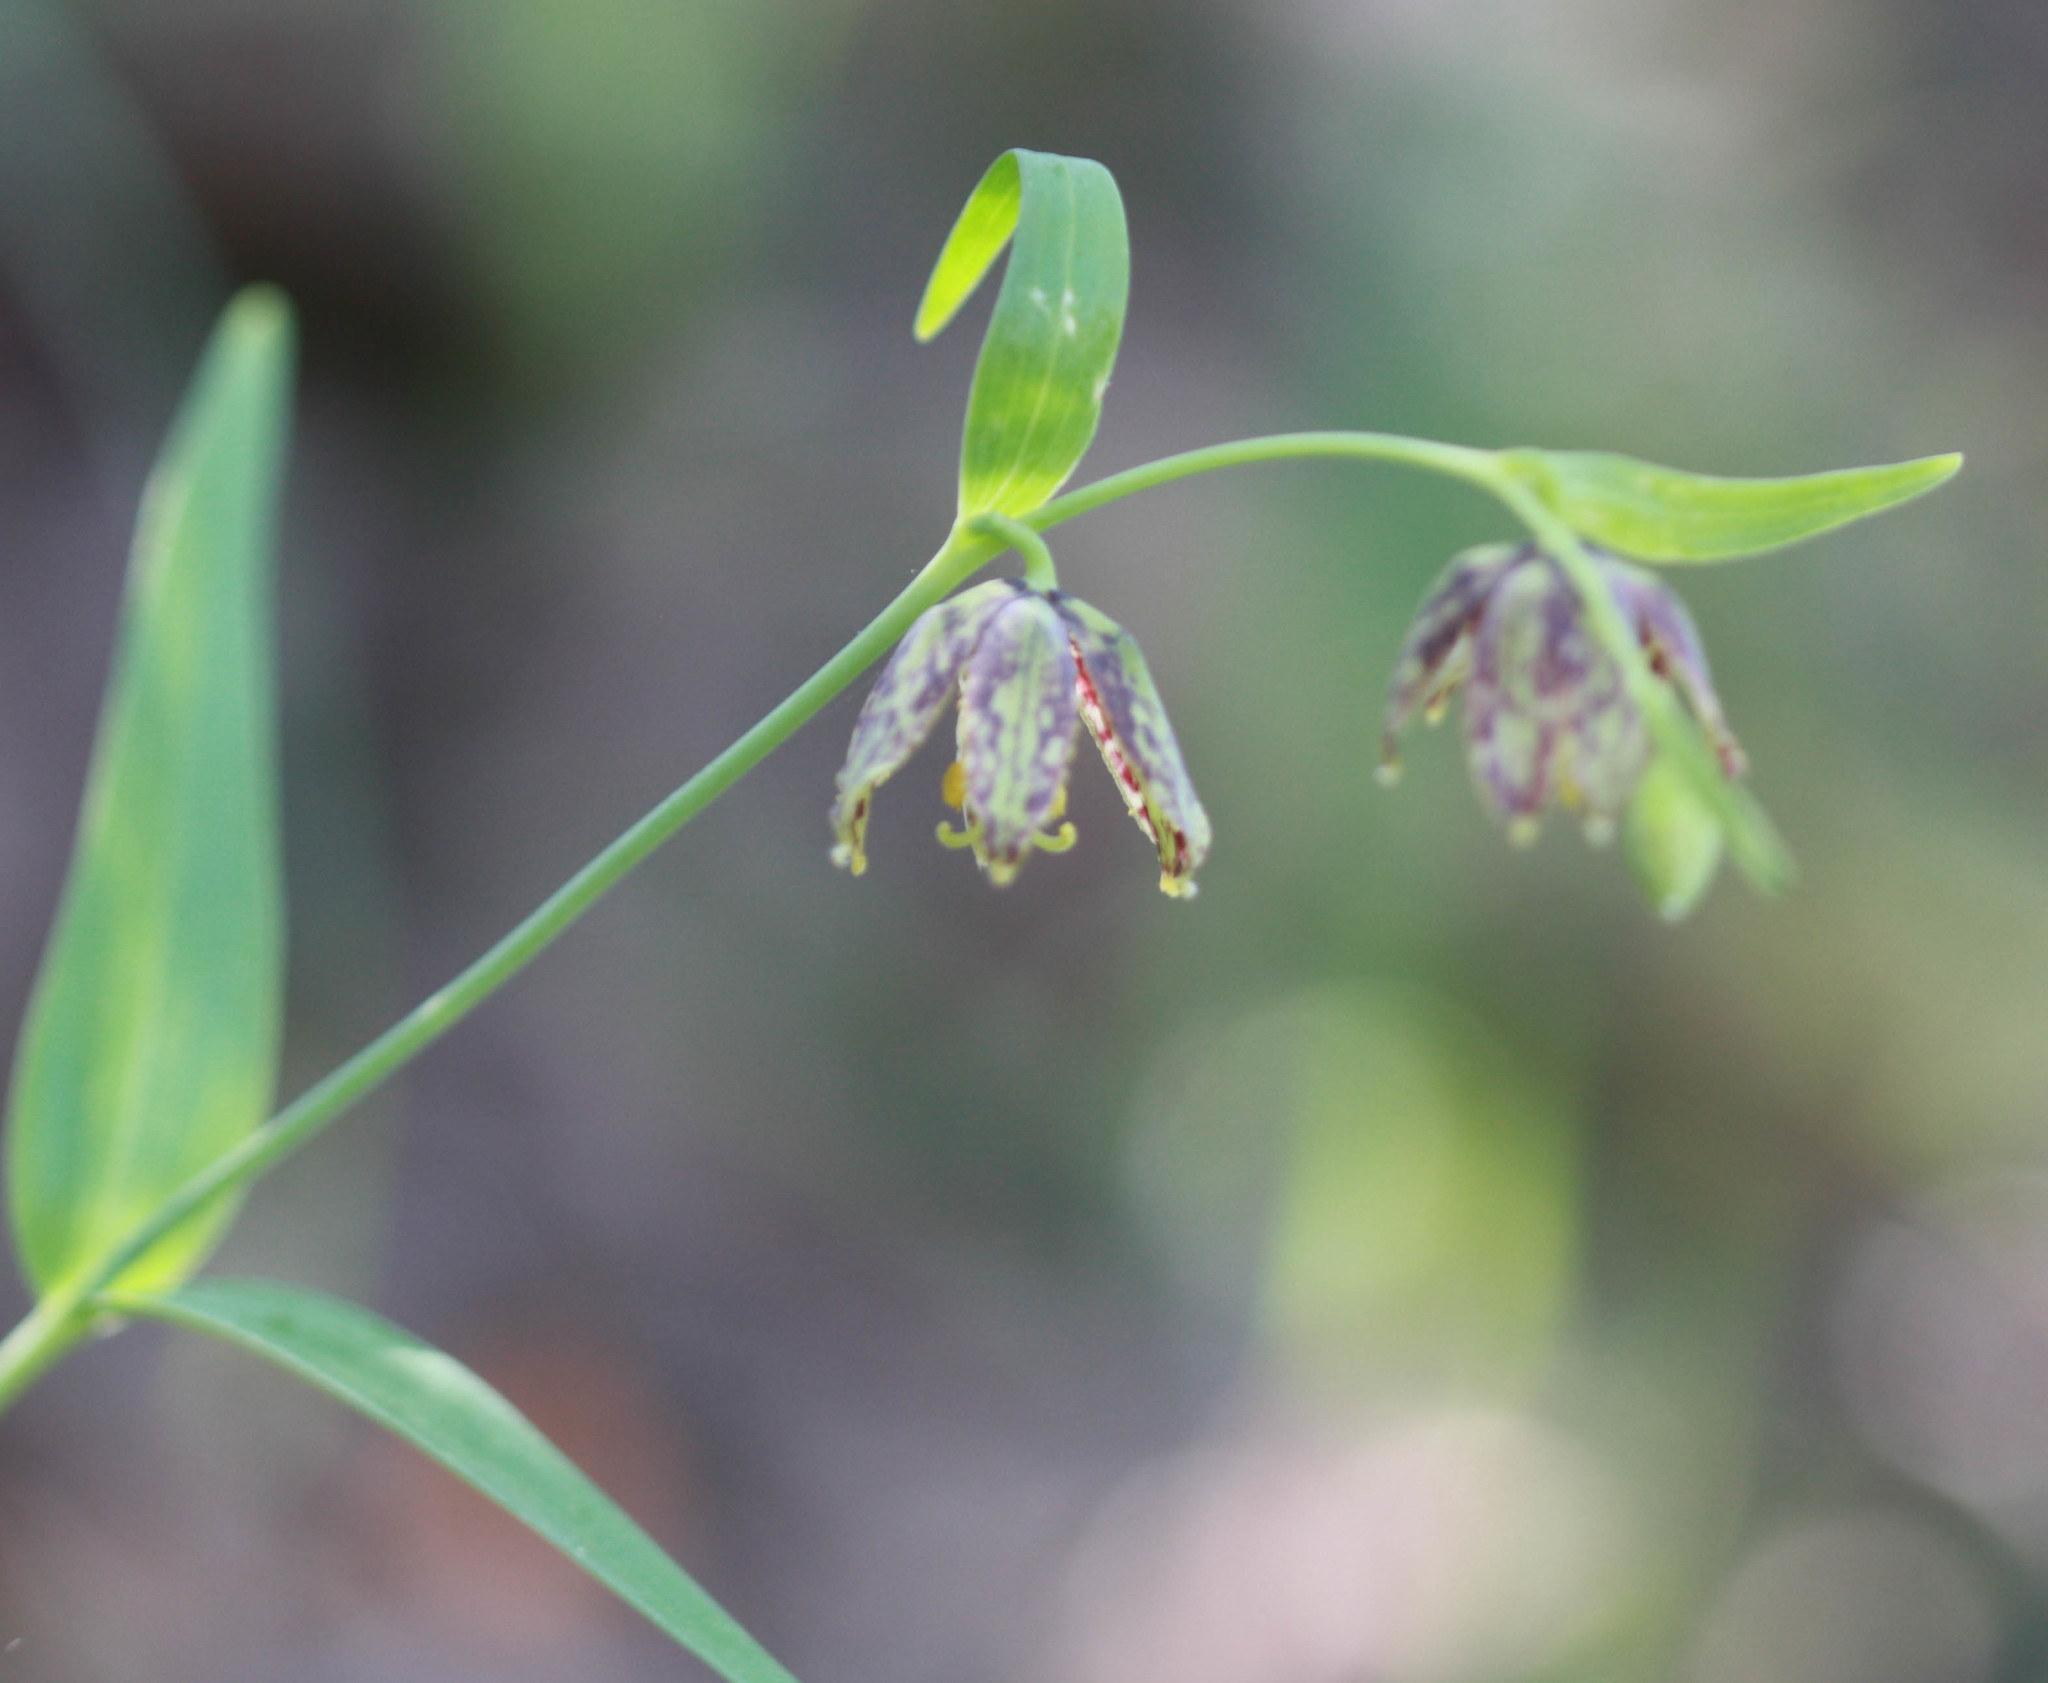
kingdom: Plantae
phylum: Tracheophyta
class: Liliopsida
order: Liliales
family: Liliaceae
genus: Fritillaria
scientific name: Fritillaria affinis
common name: Ojai fritillary
